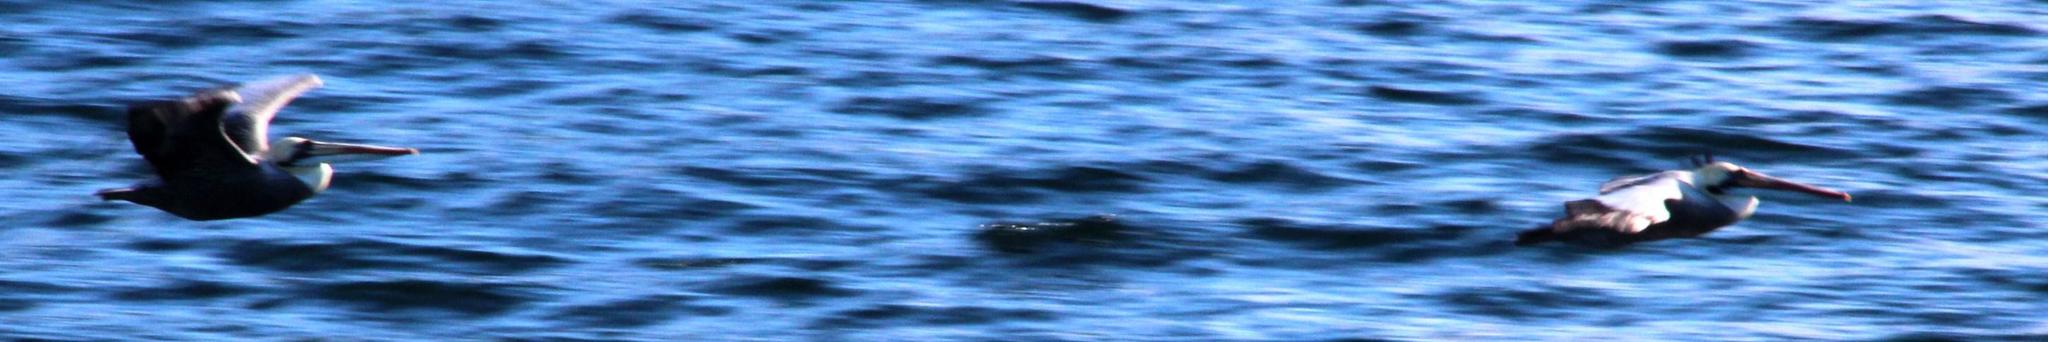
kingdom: Animalia
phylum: Chordata
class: Aves
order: Pelecaniformes
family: Pelecanidae
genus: Pelecanus
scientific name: Pelecanus thagus
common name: Peruvian pelican
